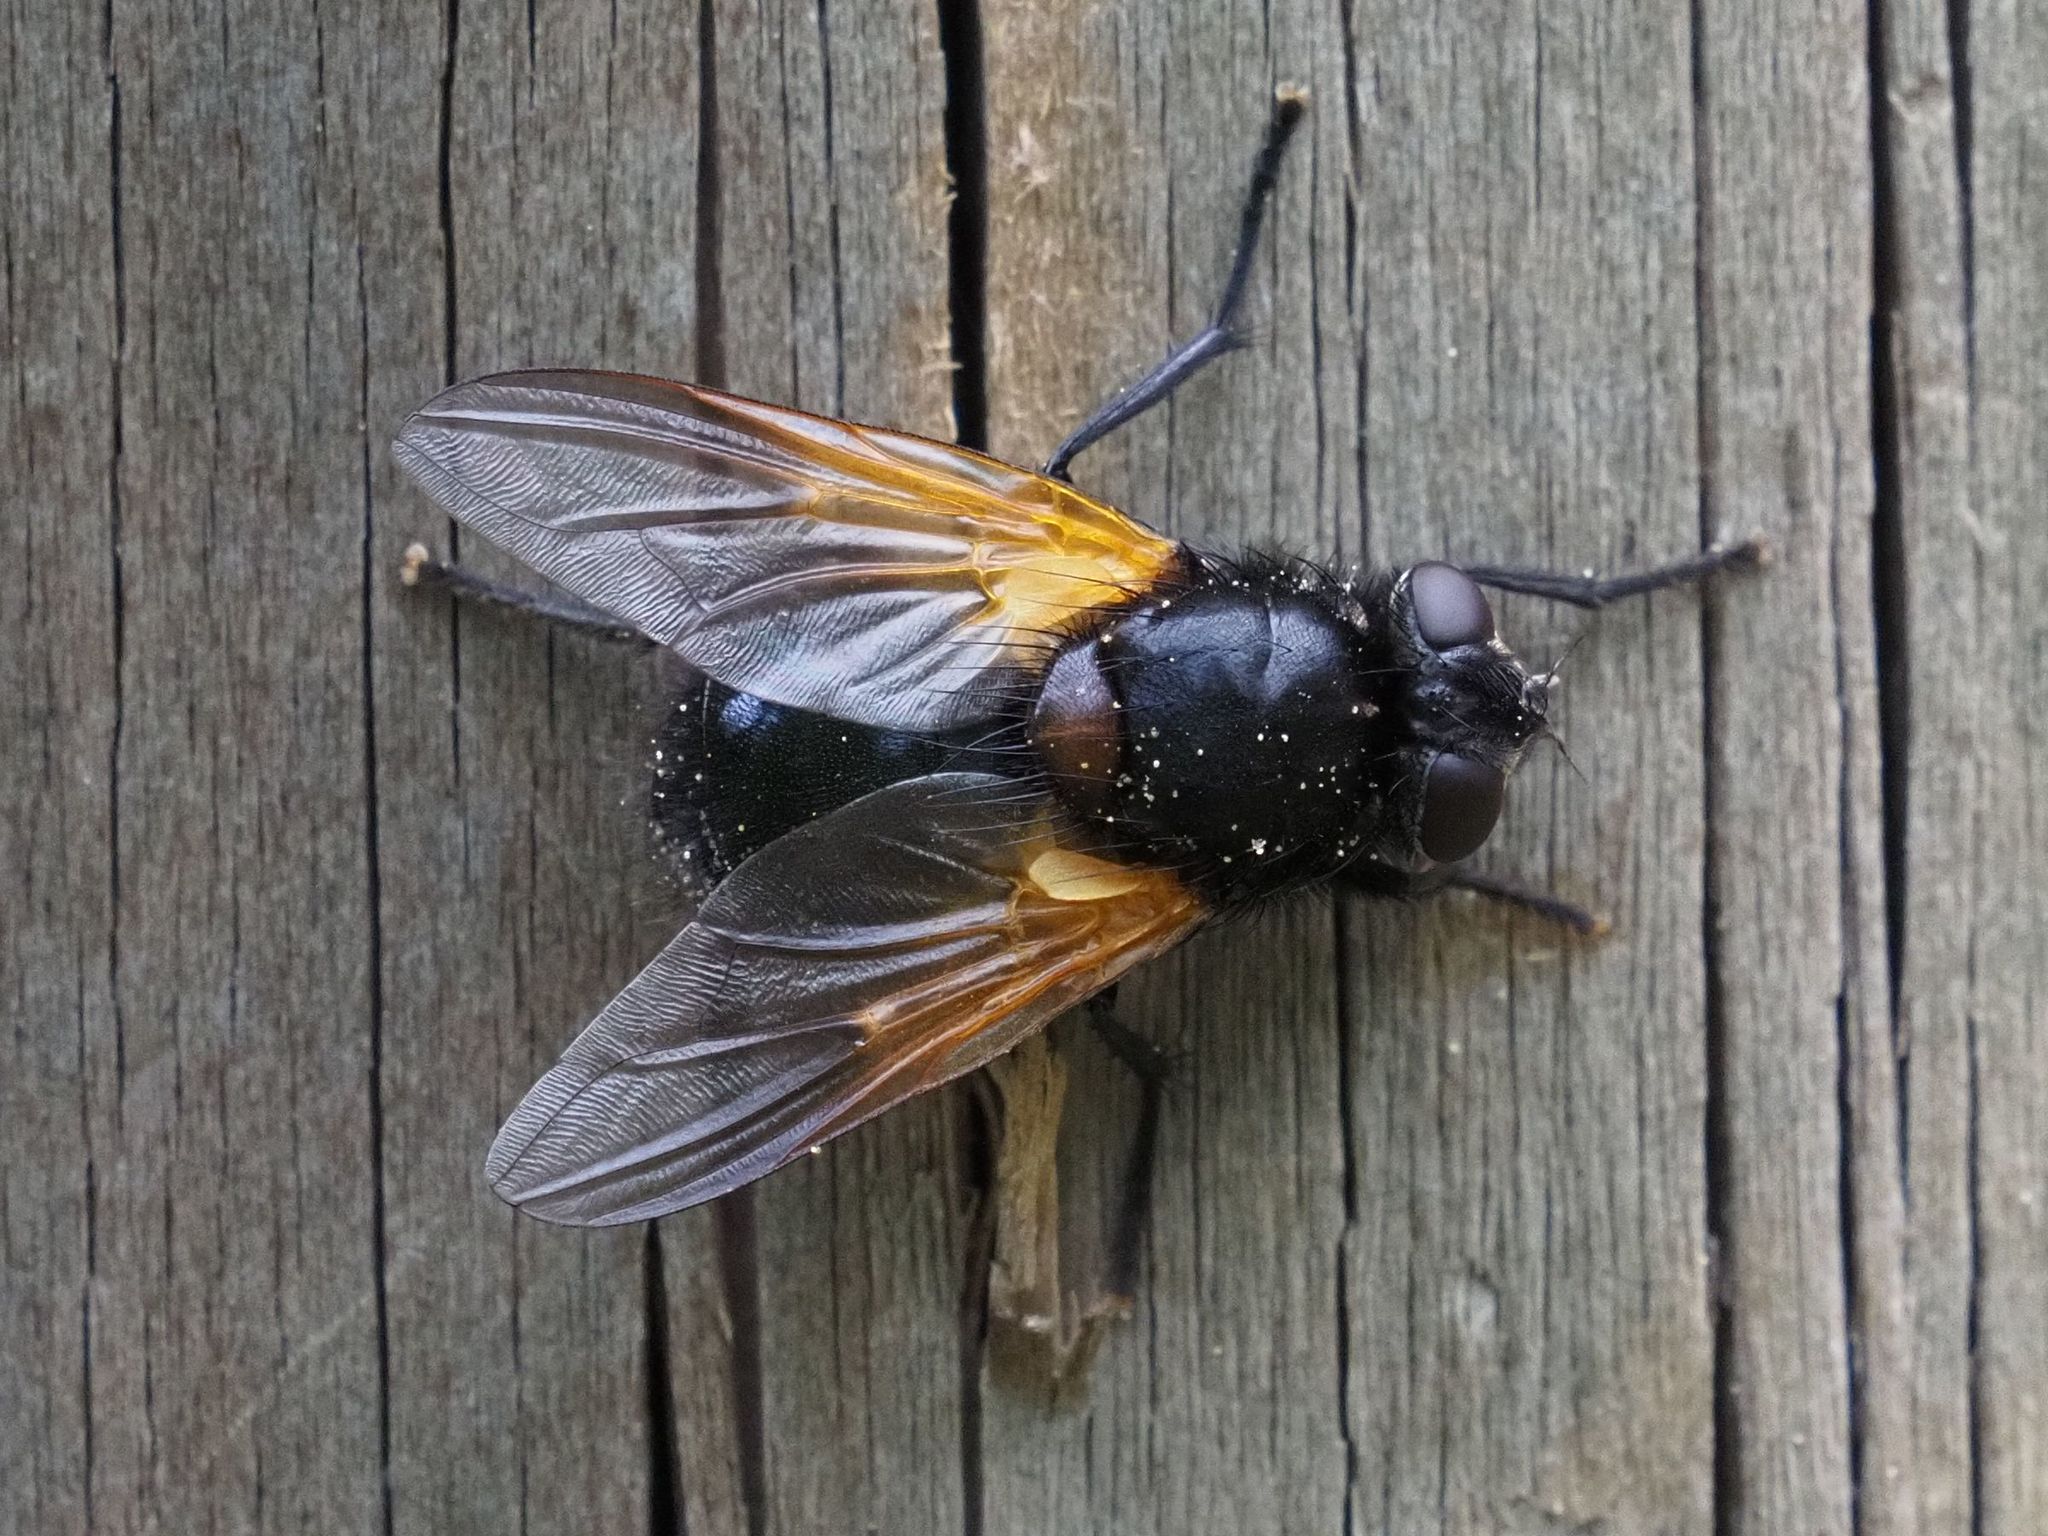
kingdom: Animalia
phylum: Arthropoda
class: Insecta
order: Diptera
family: Muscidae
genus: Mesembrina
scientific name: Mesembrina meridiana
